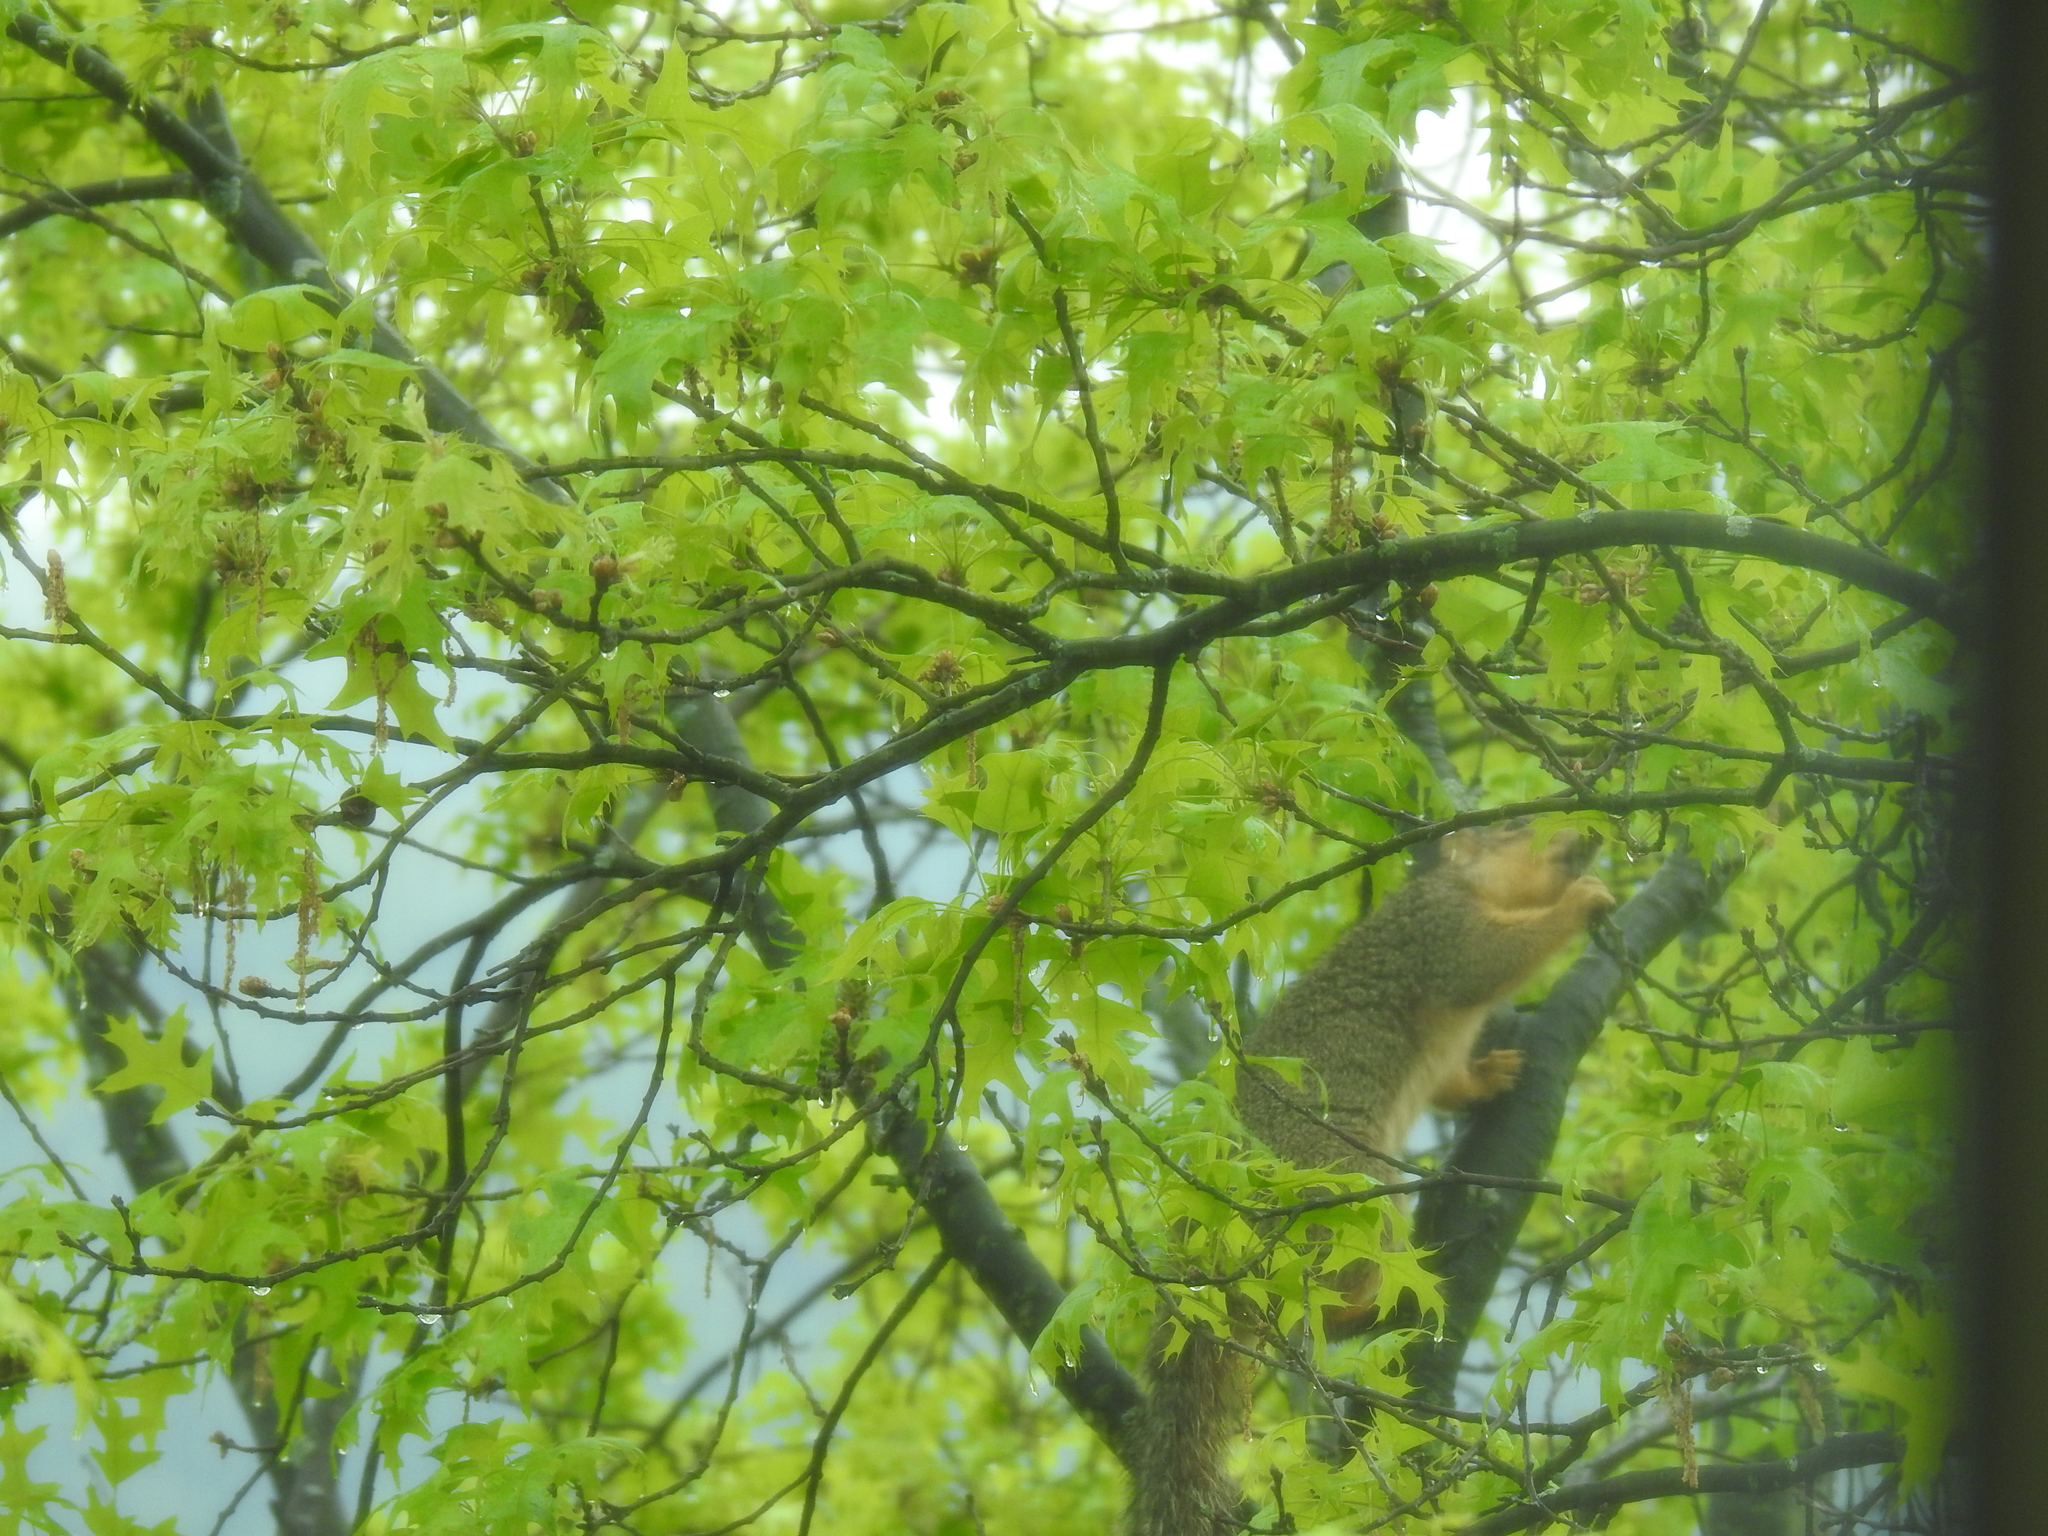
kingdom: Animalia
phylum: Chordata
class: Mammalia
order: Rodentia
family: Sciuridae
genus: Sciurus
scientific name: Sciurus niger
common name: Fox squirrel
